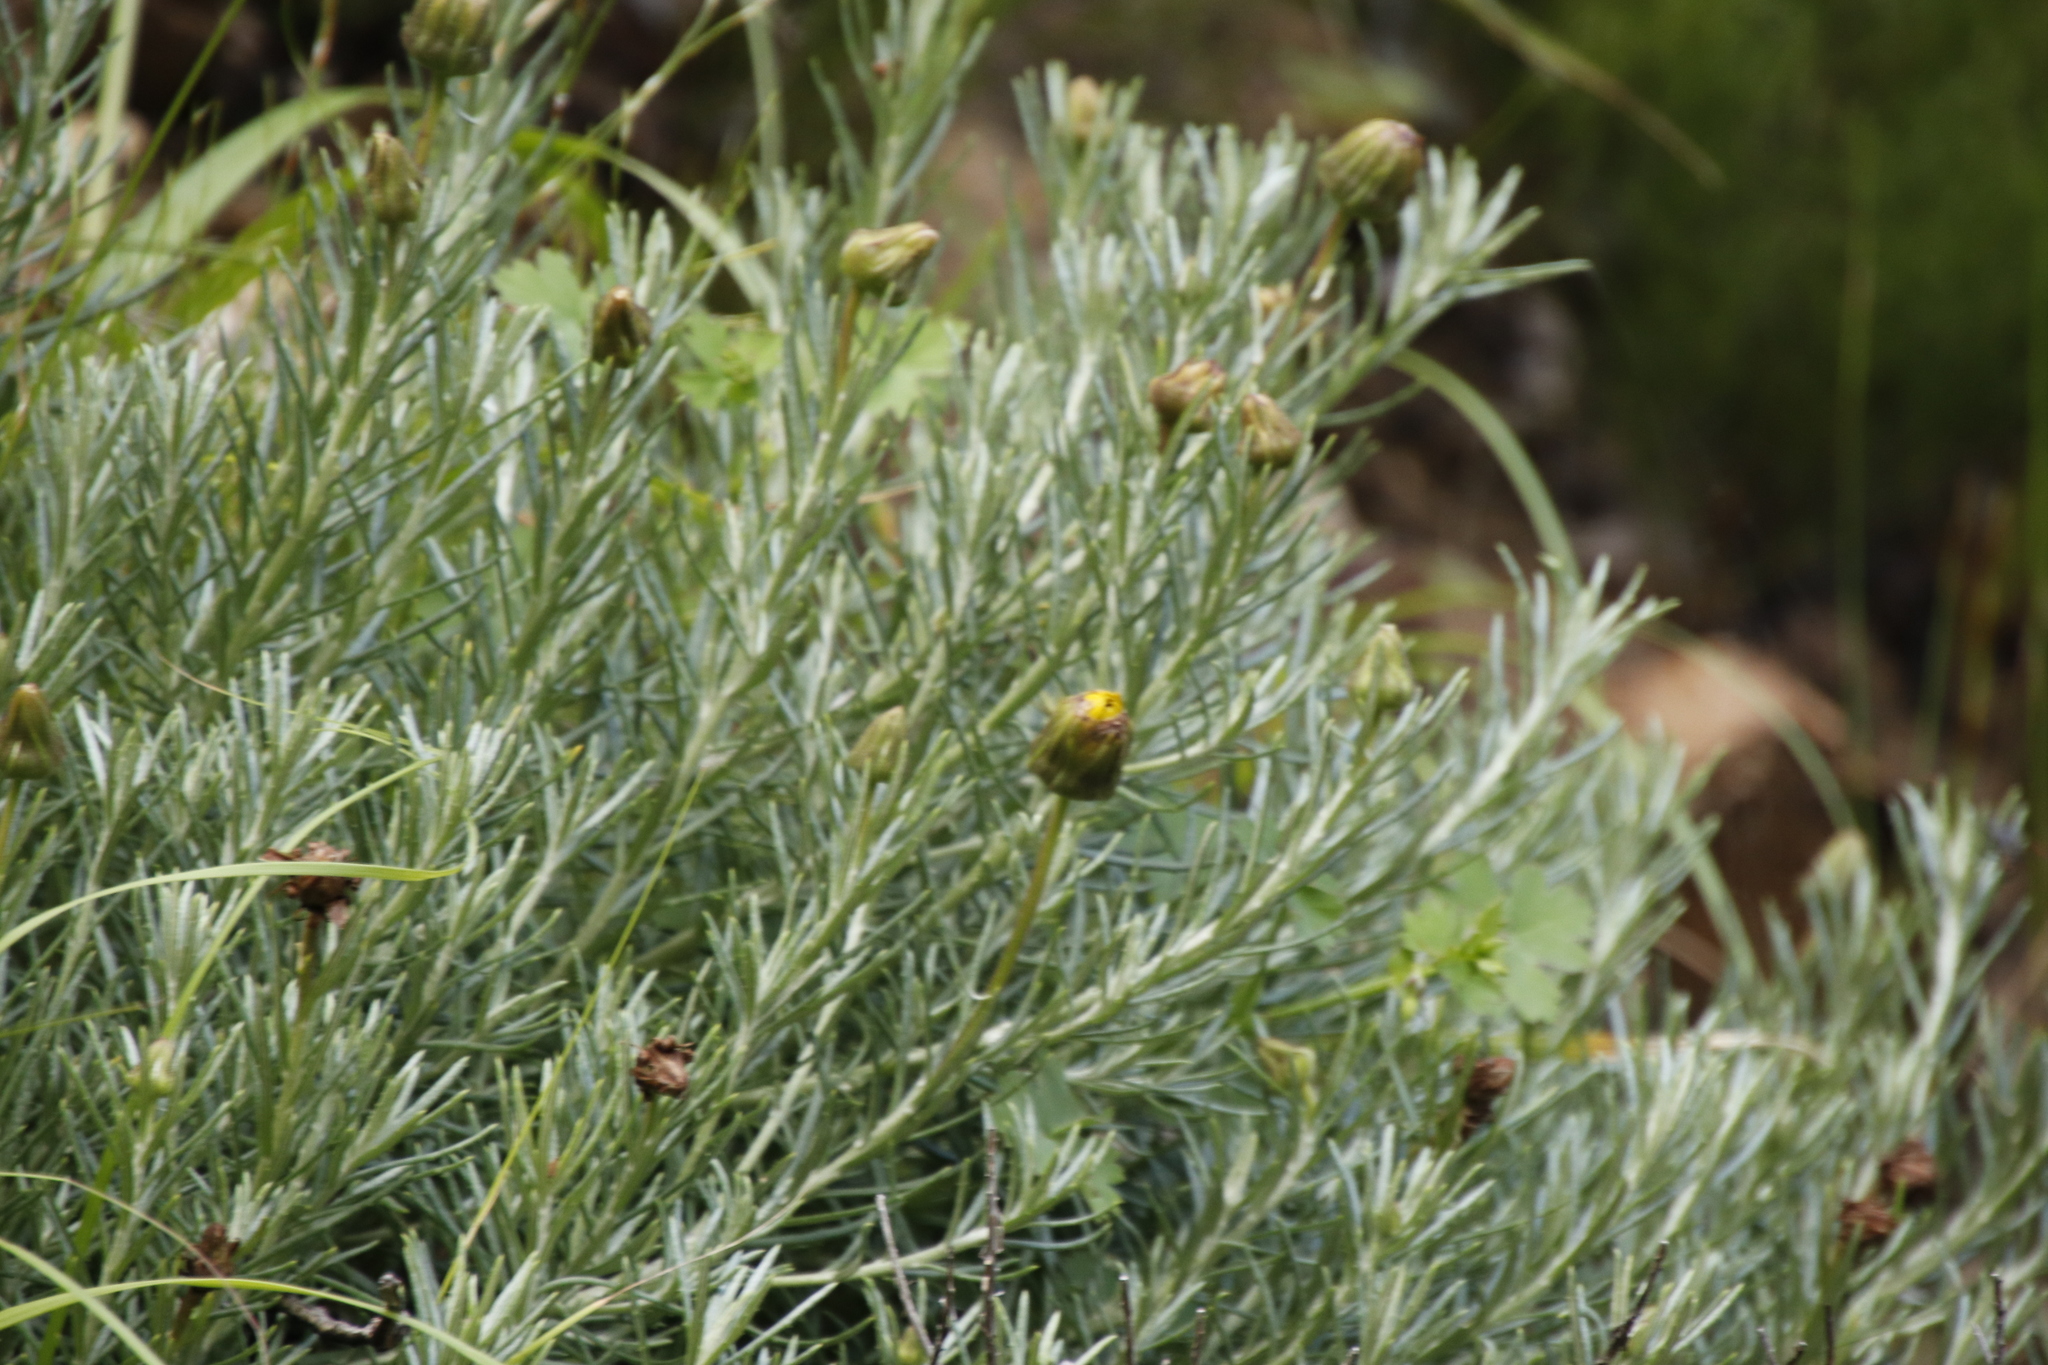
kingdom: Plantae
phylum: Tracheophyta
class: Magnoliopsida
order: Asterales
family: Asteraceae
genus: Heterolepis
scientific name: Heterolepis aliena
